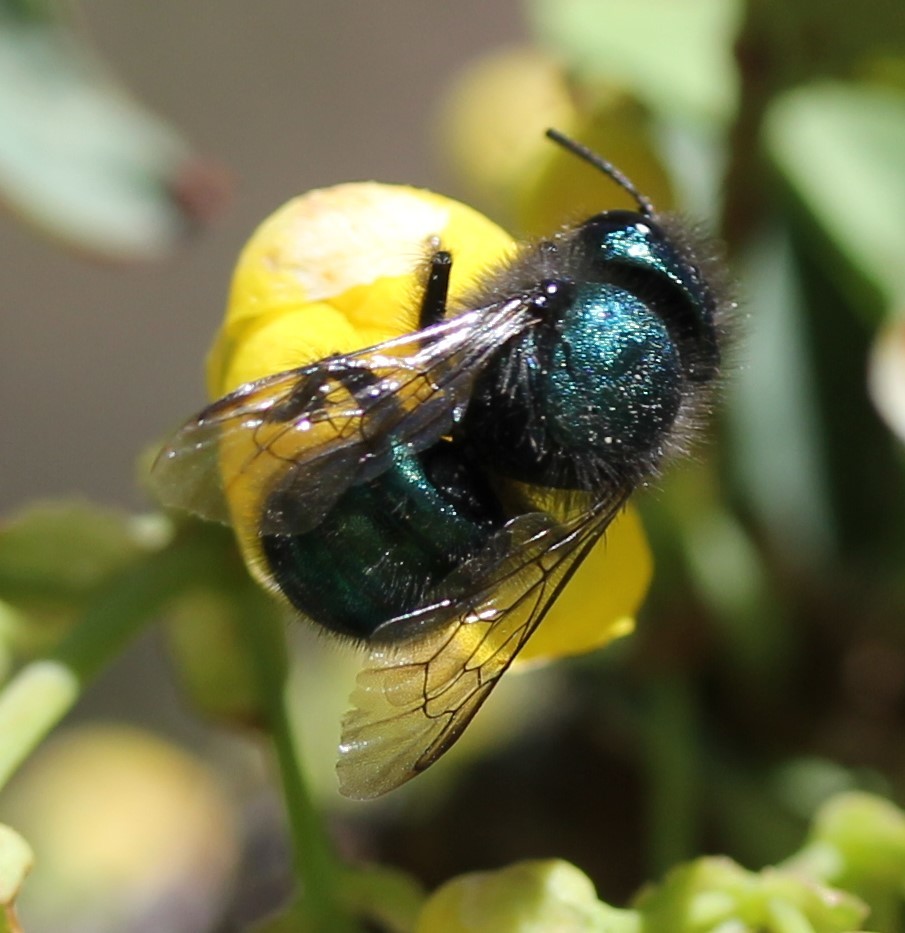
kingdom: Animalia
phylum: Arthropoda
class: Insecta
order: Hymenoptera
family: Megachilidae
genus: Osmia
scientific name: Osmia ribifloris
